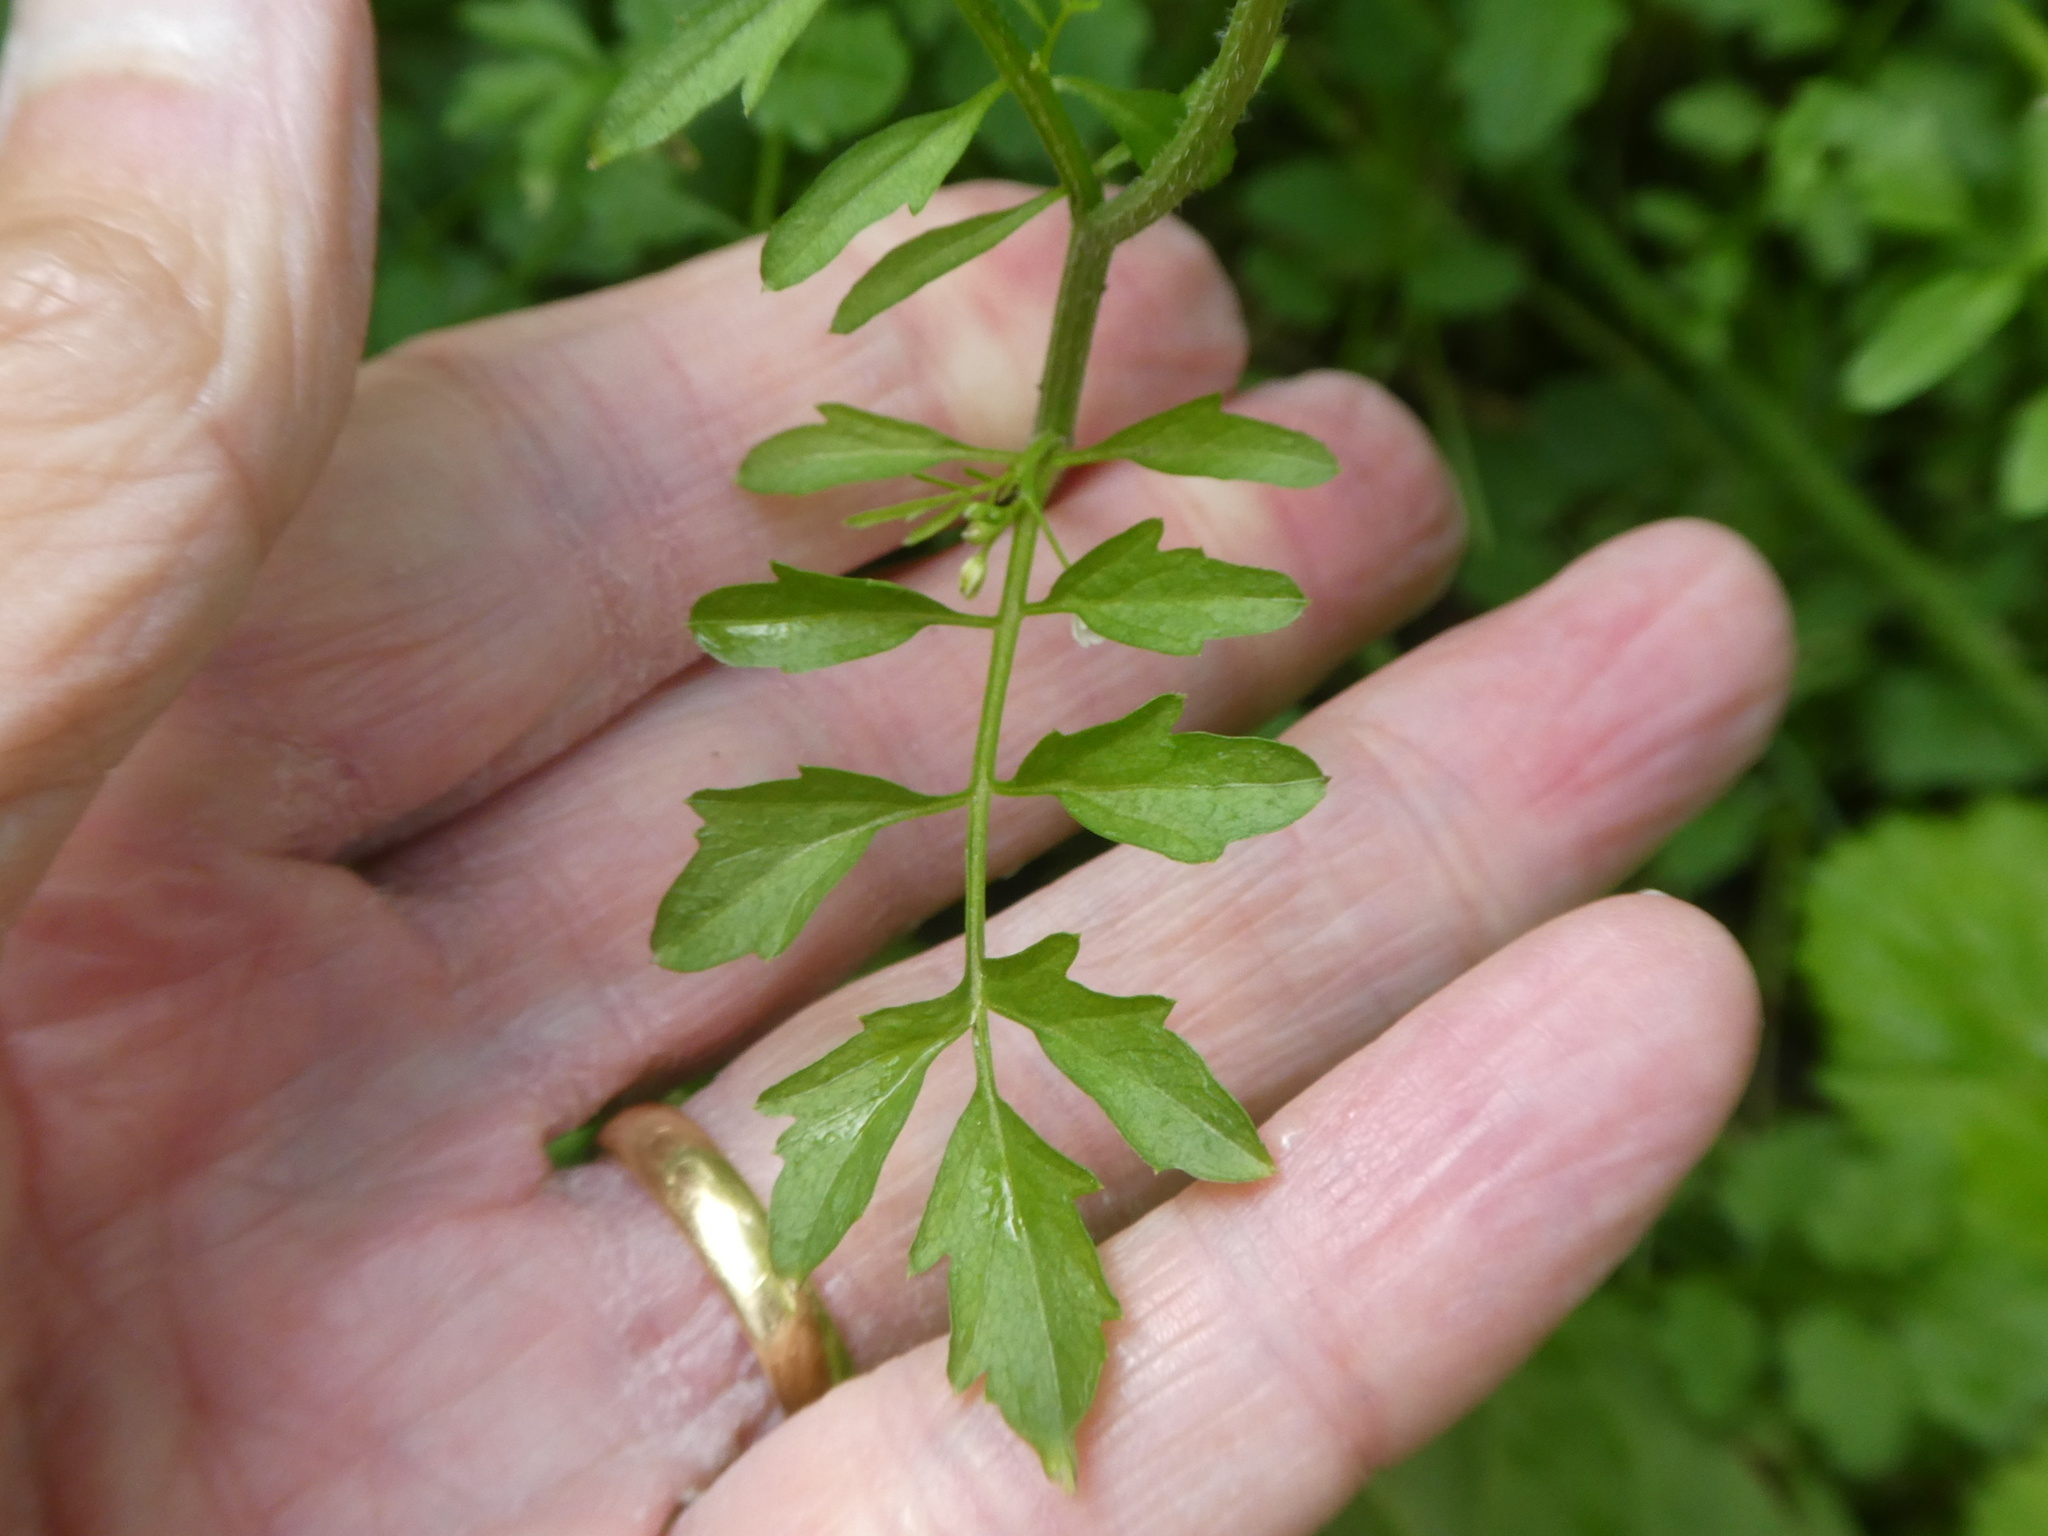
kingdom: Plantae
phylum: Tracheophyta
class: Magnoliopsida
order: Brassicales
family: Brassicaceae
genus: Cardamine
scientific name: Cardamine flexuosa
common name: Woodland bittercress
